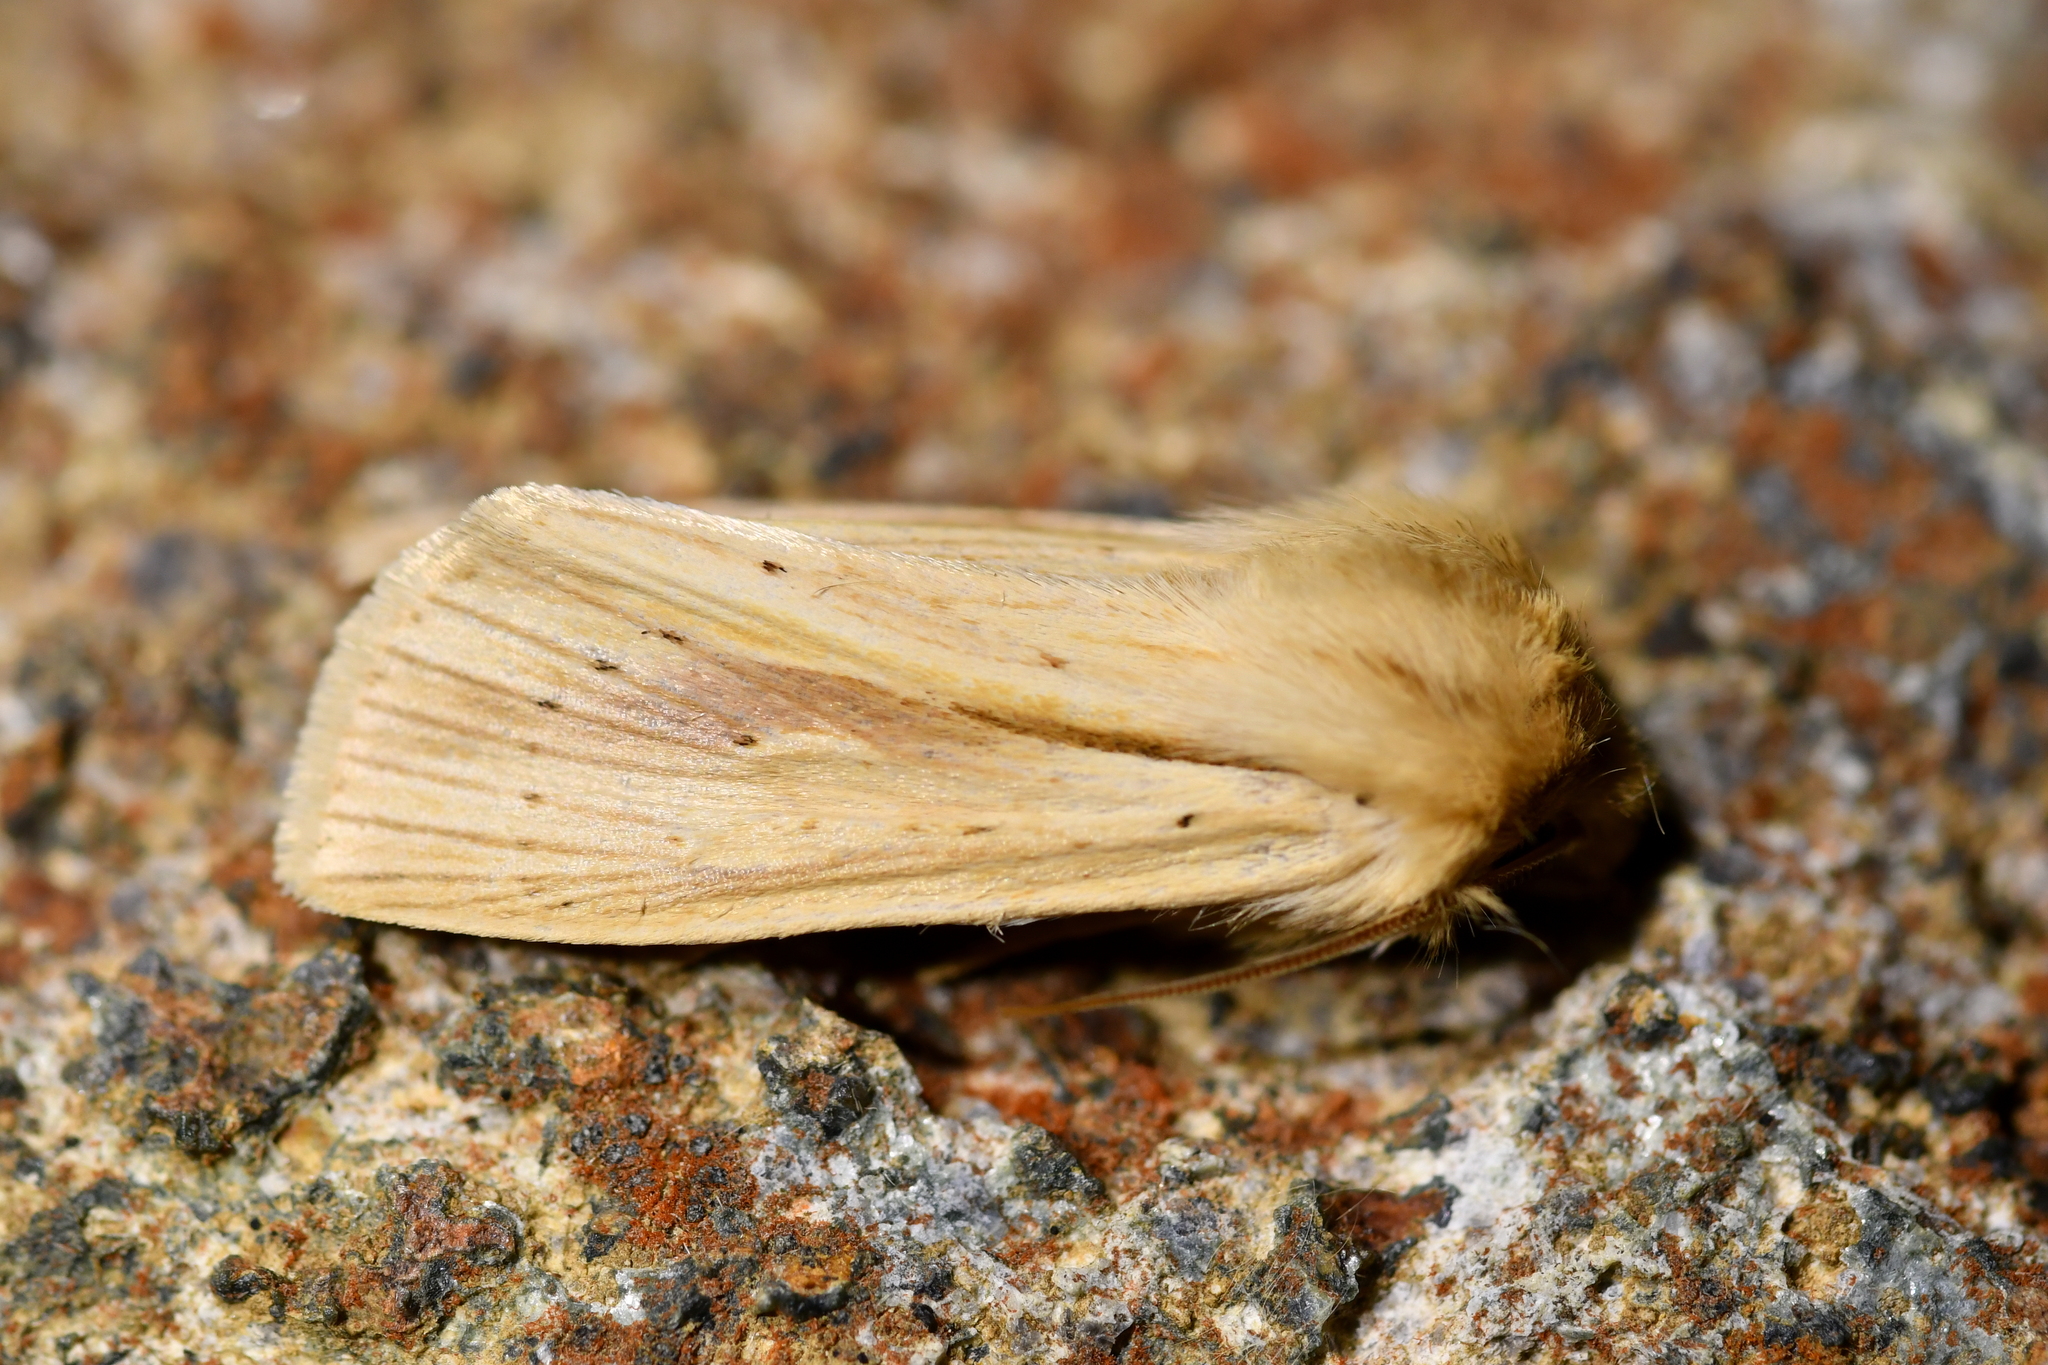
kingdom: Animalia
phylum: Arthropoda
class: Insecta
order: Lepidoptera
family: Noctuidae
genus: Ichneutica
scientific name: Ichneutica semivittata
